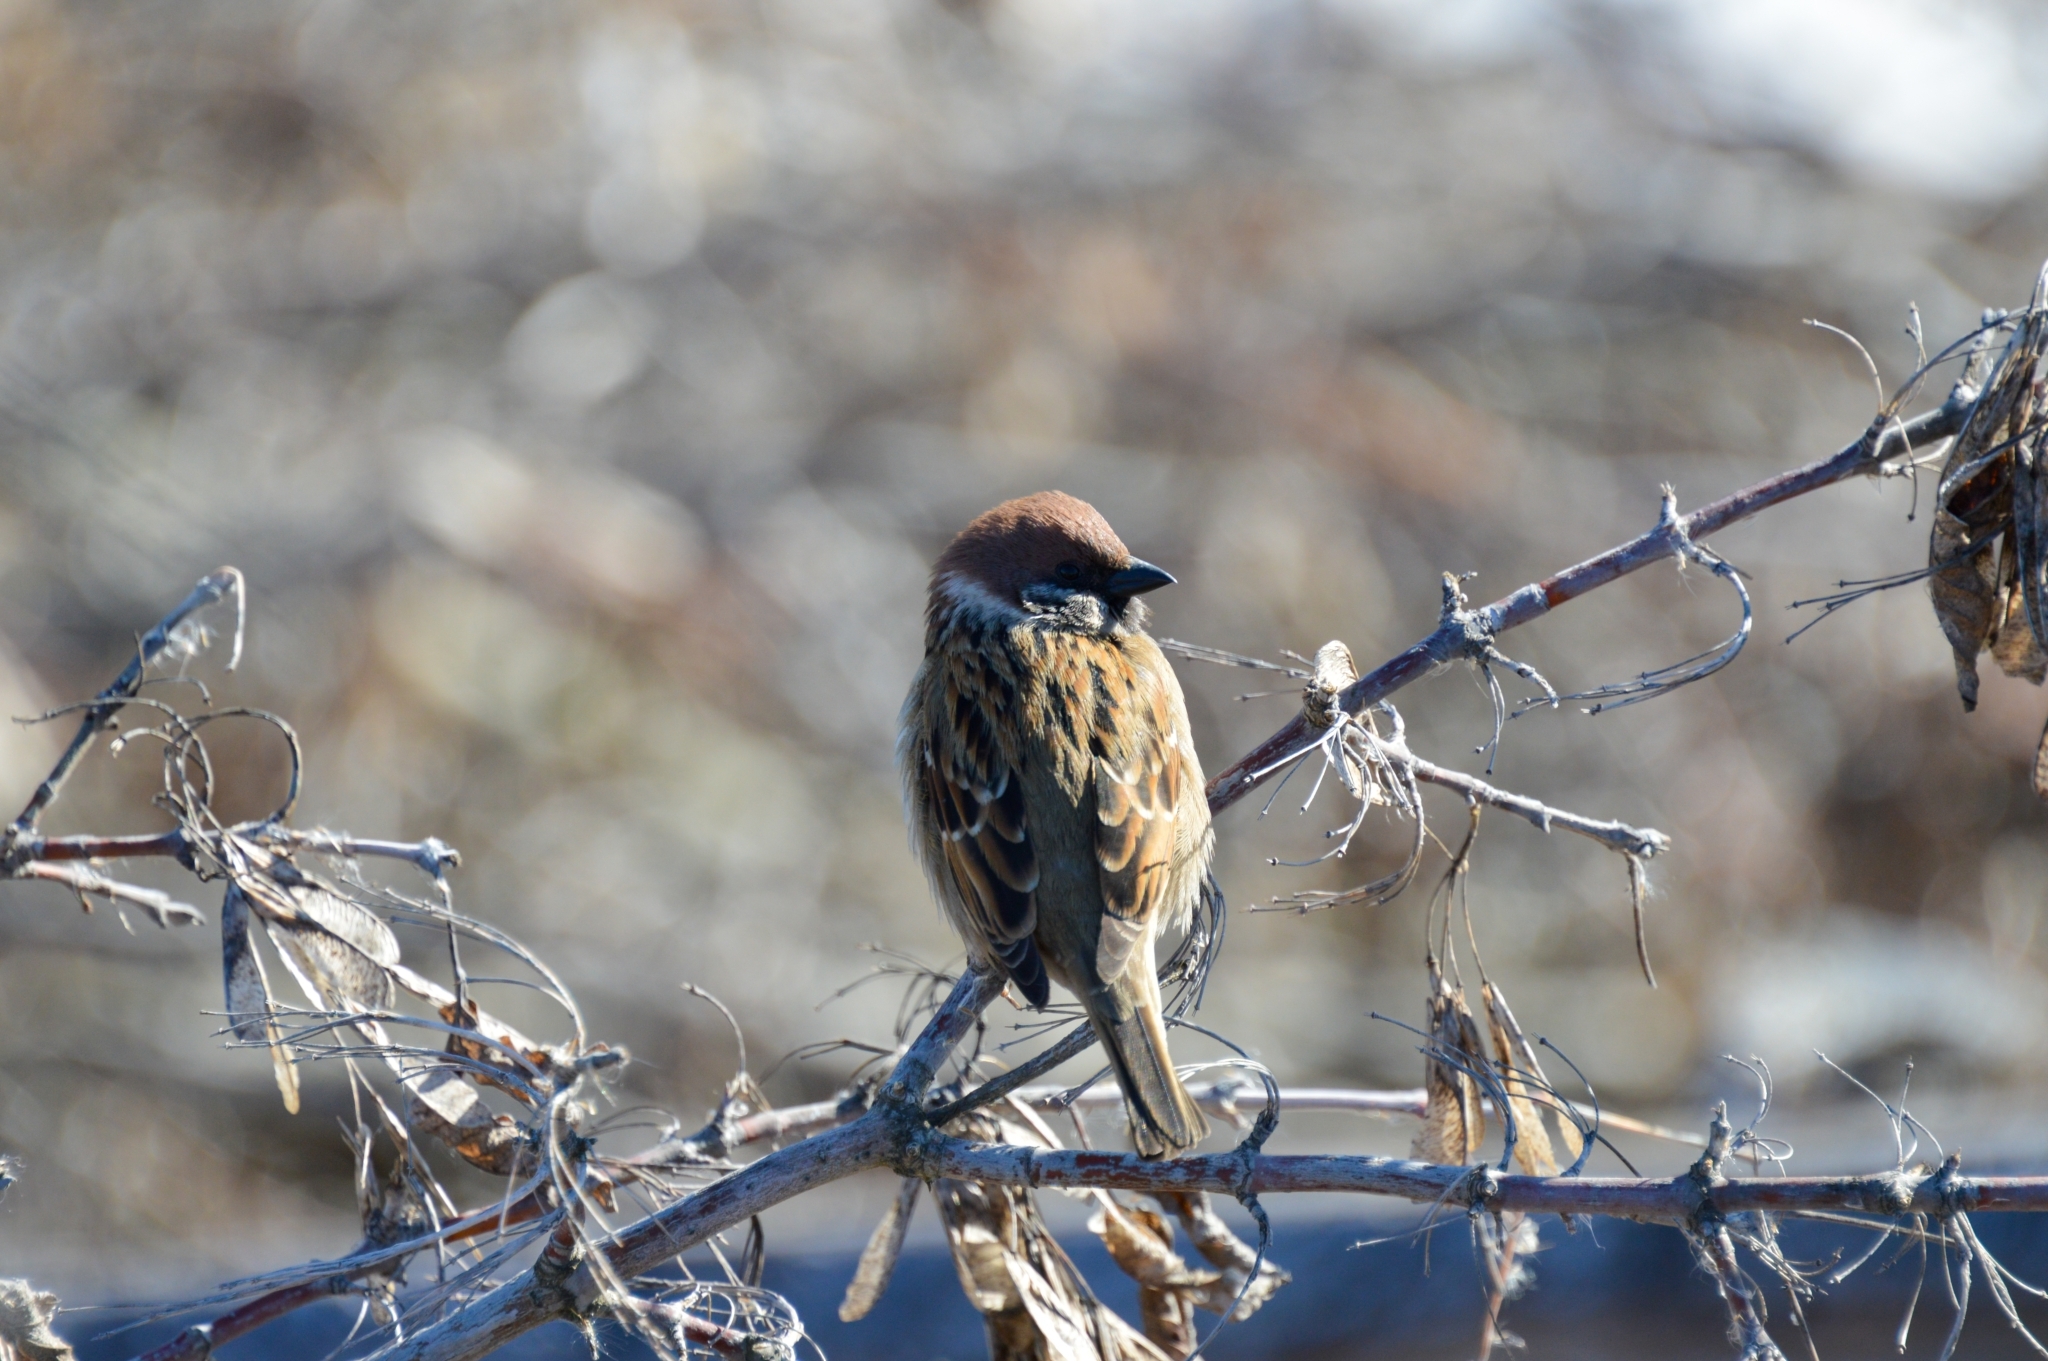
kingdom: Animalia
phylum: Chordata
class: Aves
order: Passeriformes
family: Passeridae
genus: Passer
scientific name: Passer montanus
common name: Eurasian tree sparrow
